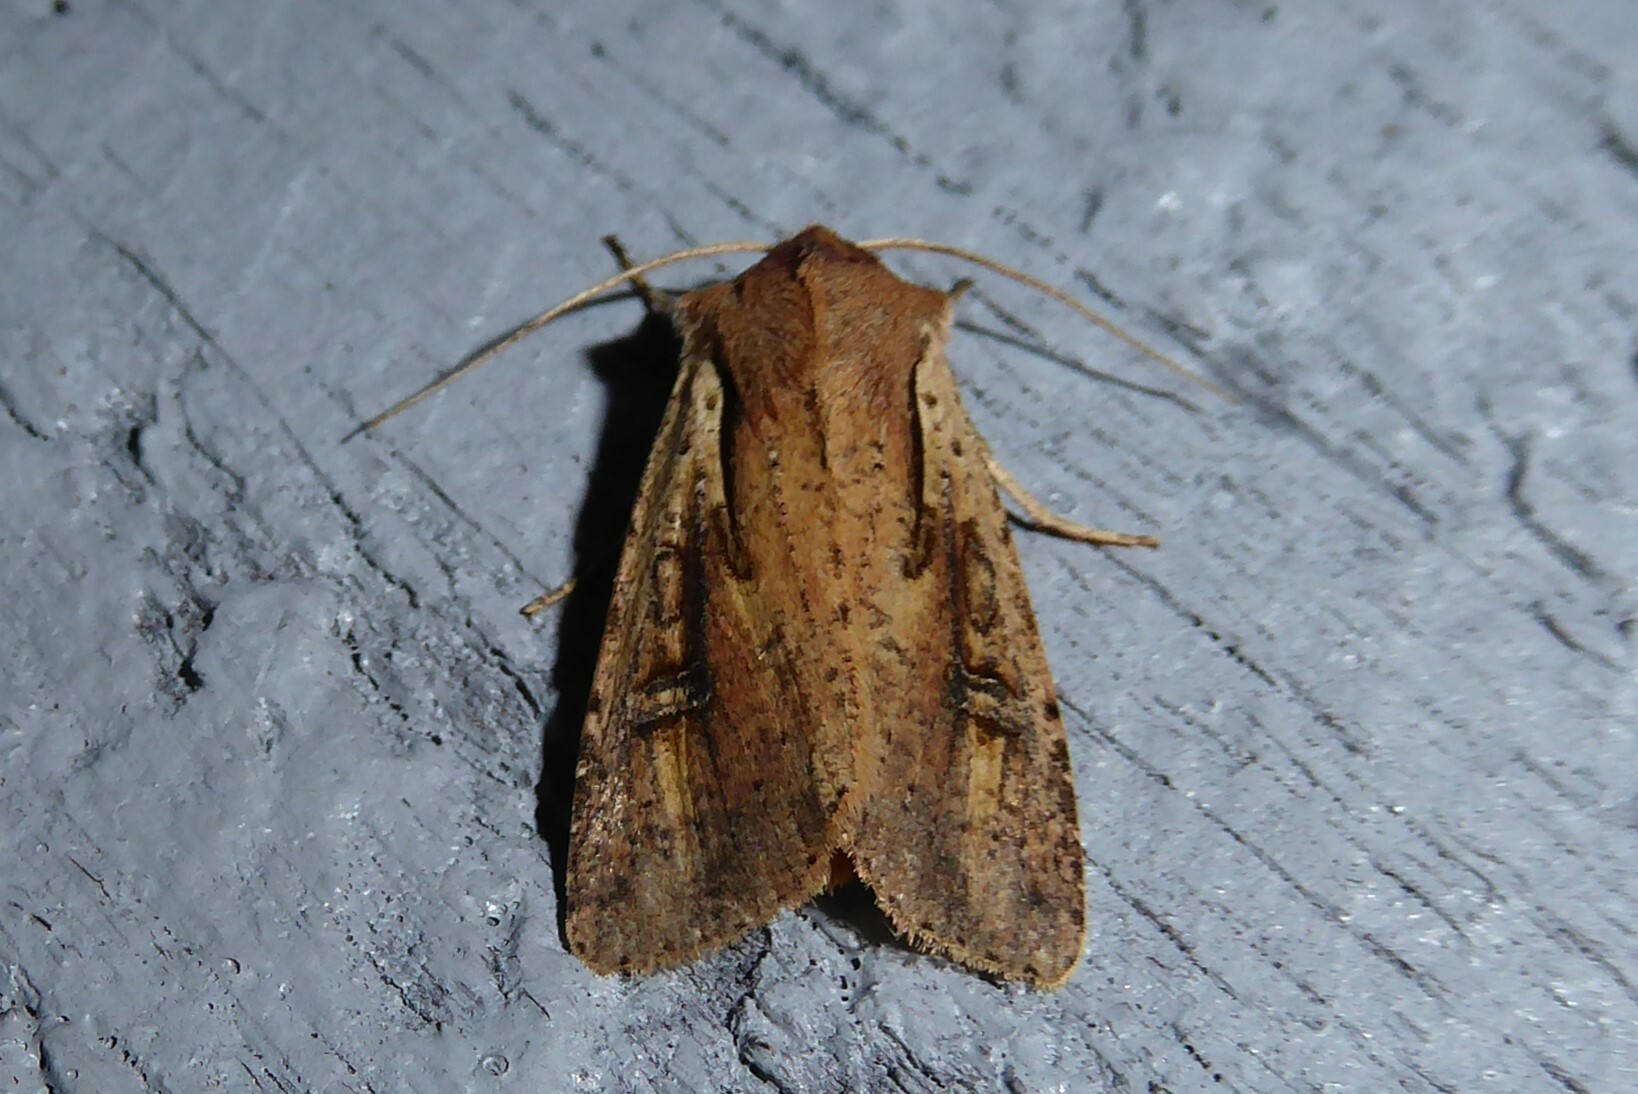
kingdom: Animalia
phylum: Arthropoda
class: Insecta
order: Lepidoptera
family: Noctuidae
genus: Ichneutica
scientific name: Ichneutica atristriga
